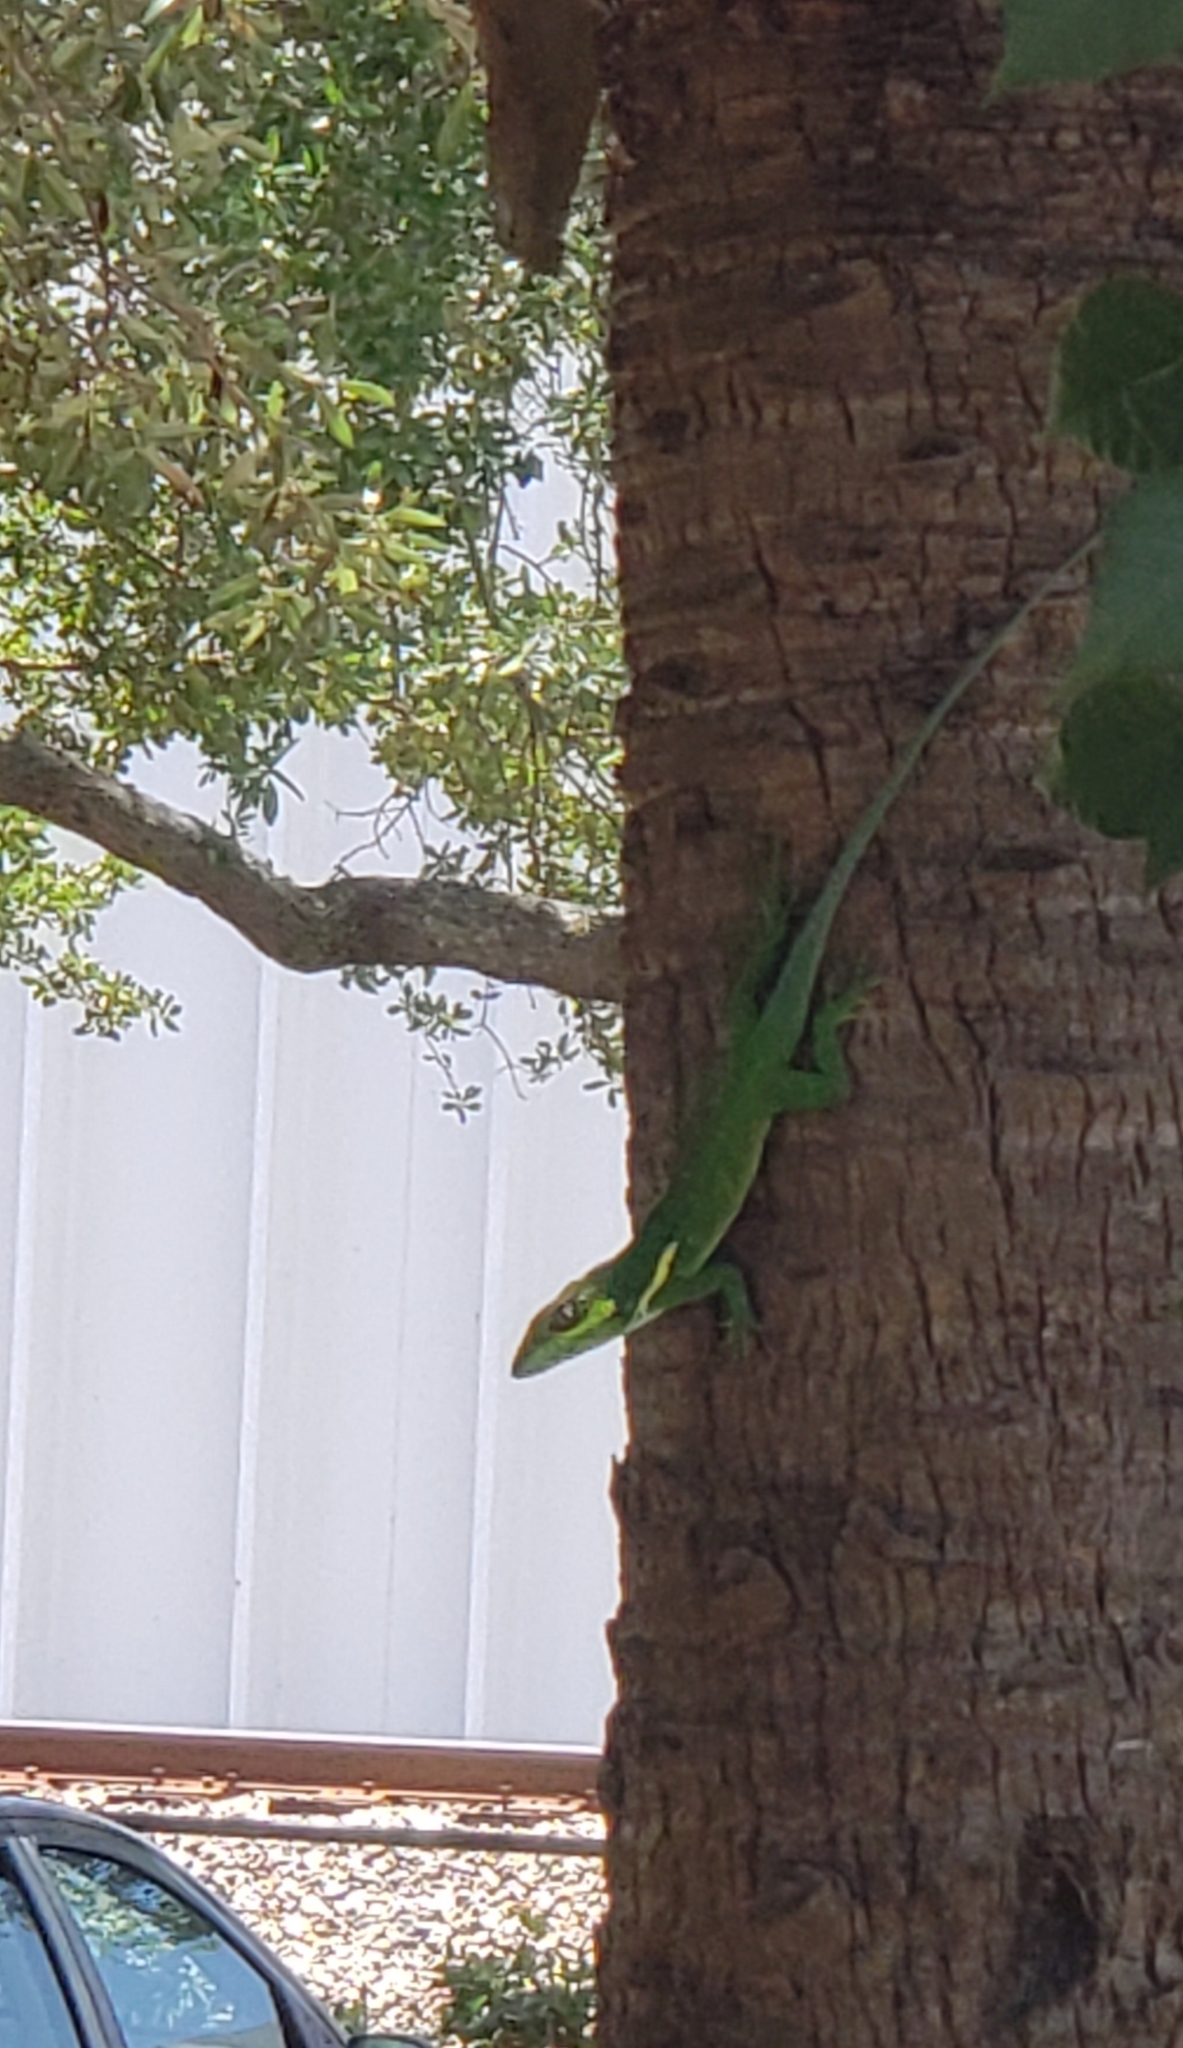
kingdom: Animalia
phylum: Chordata
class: Squamata
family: Dactyloidae
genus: Anolis
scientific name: Anolis equestris
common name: Knight anole
